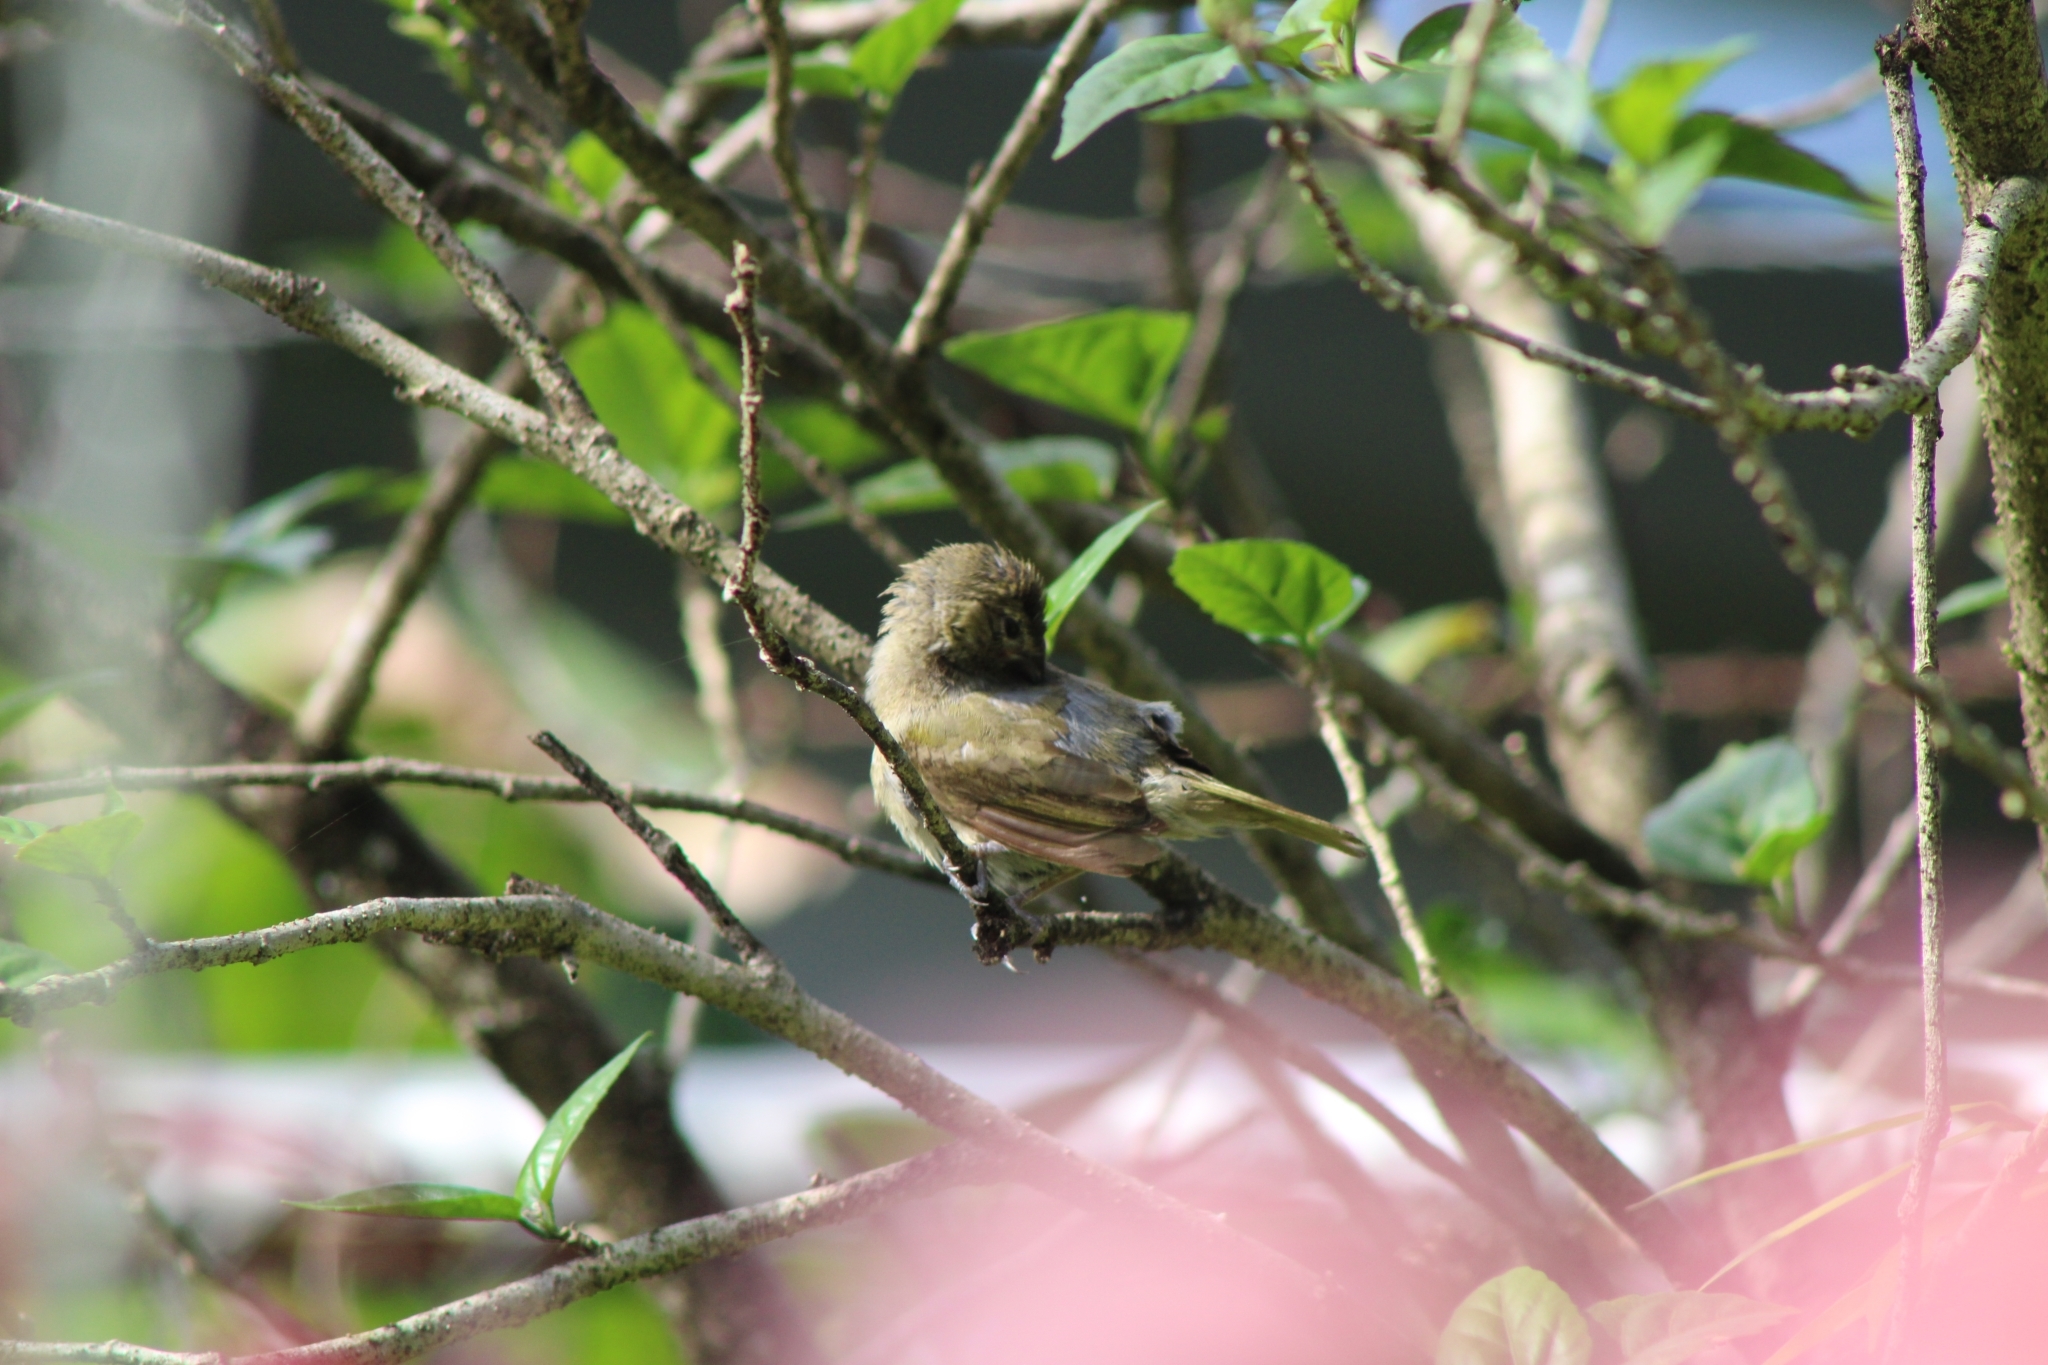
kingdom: Animalia
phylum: Chordata
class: Aves
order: Passeriformes
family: Thraupidae
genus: Tiaris
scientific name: Tiaris olivaceus
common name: Yellow-faced grassquit
